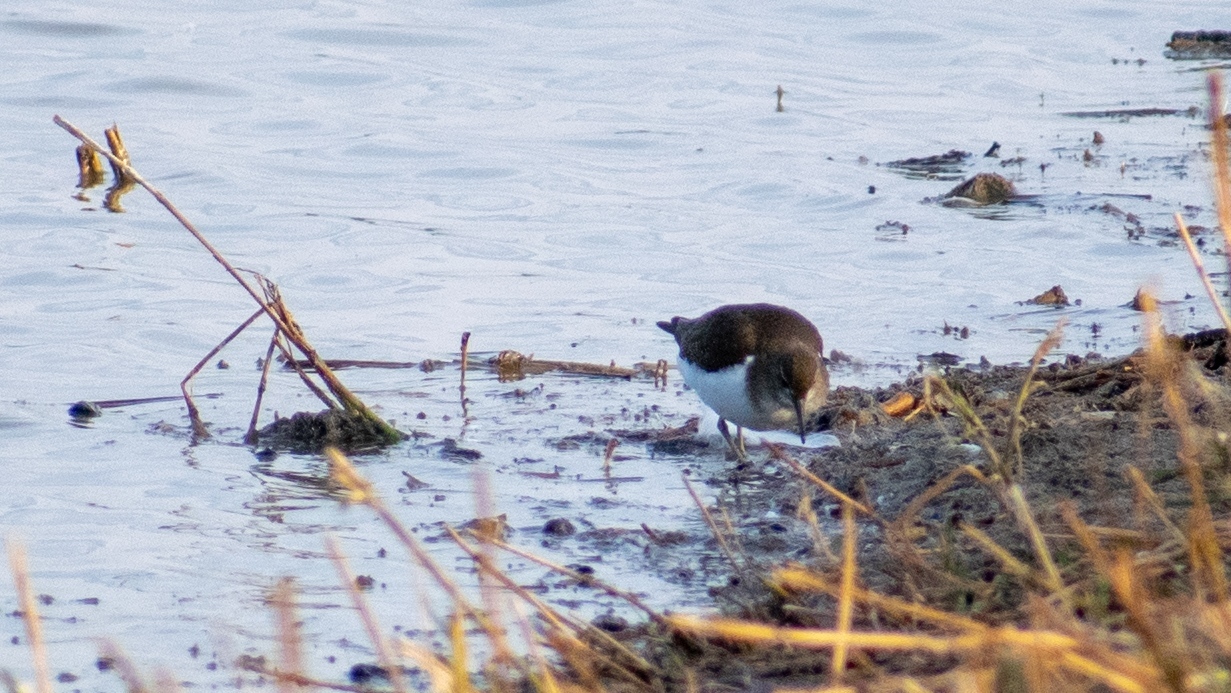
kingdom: Animalia
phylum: Chordata
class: Aves
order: Charadriiformes
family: Scolopacidae
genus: Actitis
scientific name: Actitis hypoleucos
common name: Common sandpiper
